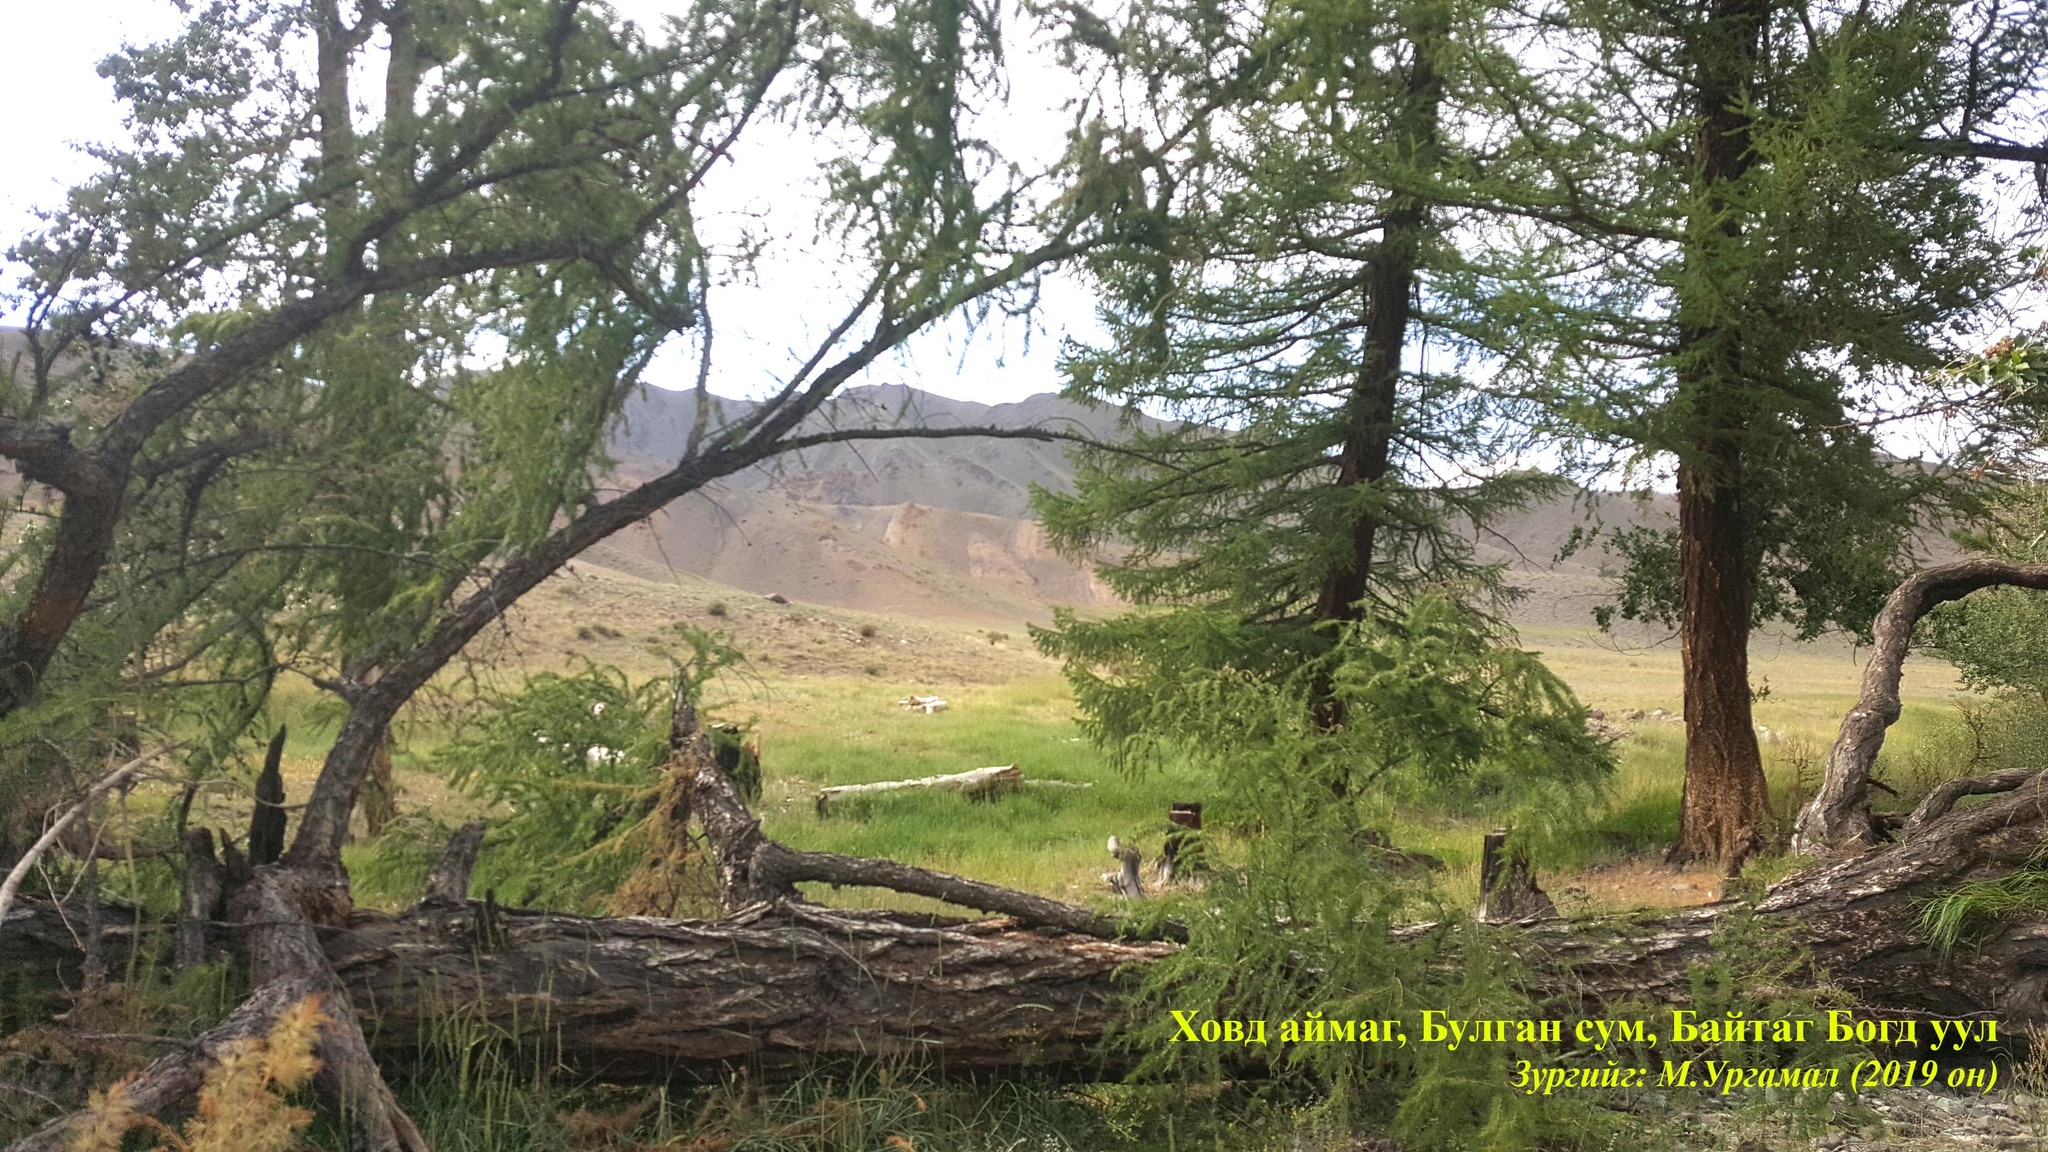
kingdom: Plantae
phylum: Tracheophyta
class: Pinopsida
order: Pinales
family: Pinaceae
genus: Larix
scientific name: Larix sibirica
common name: Siberian larch
